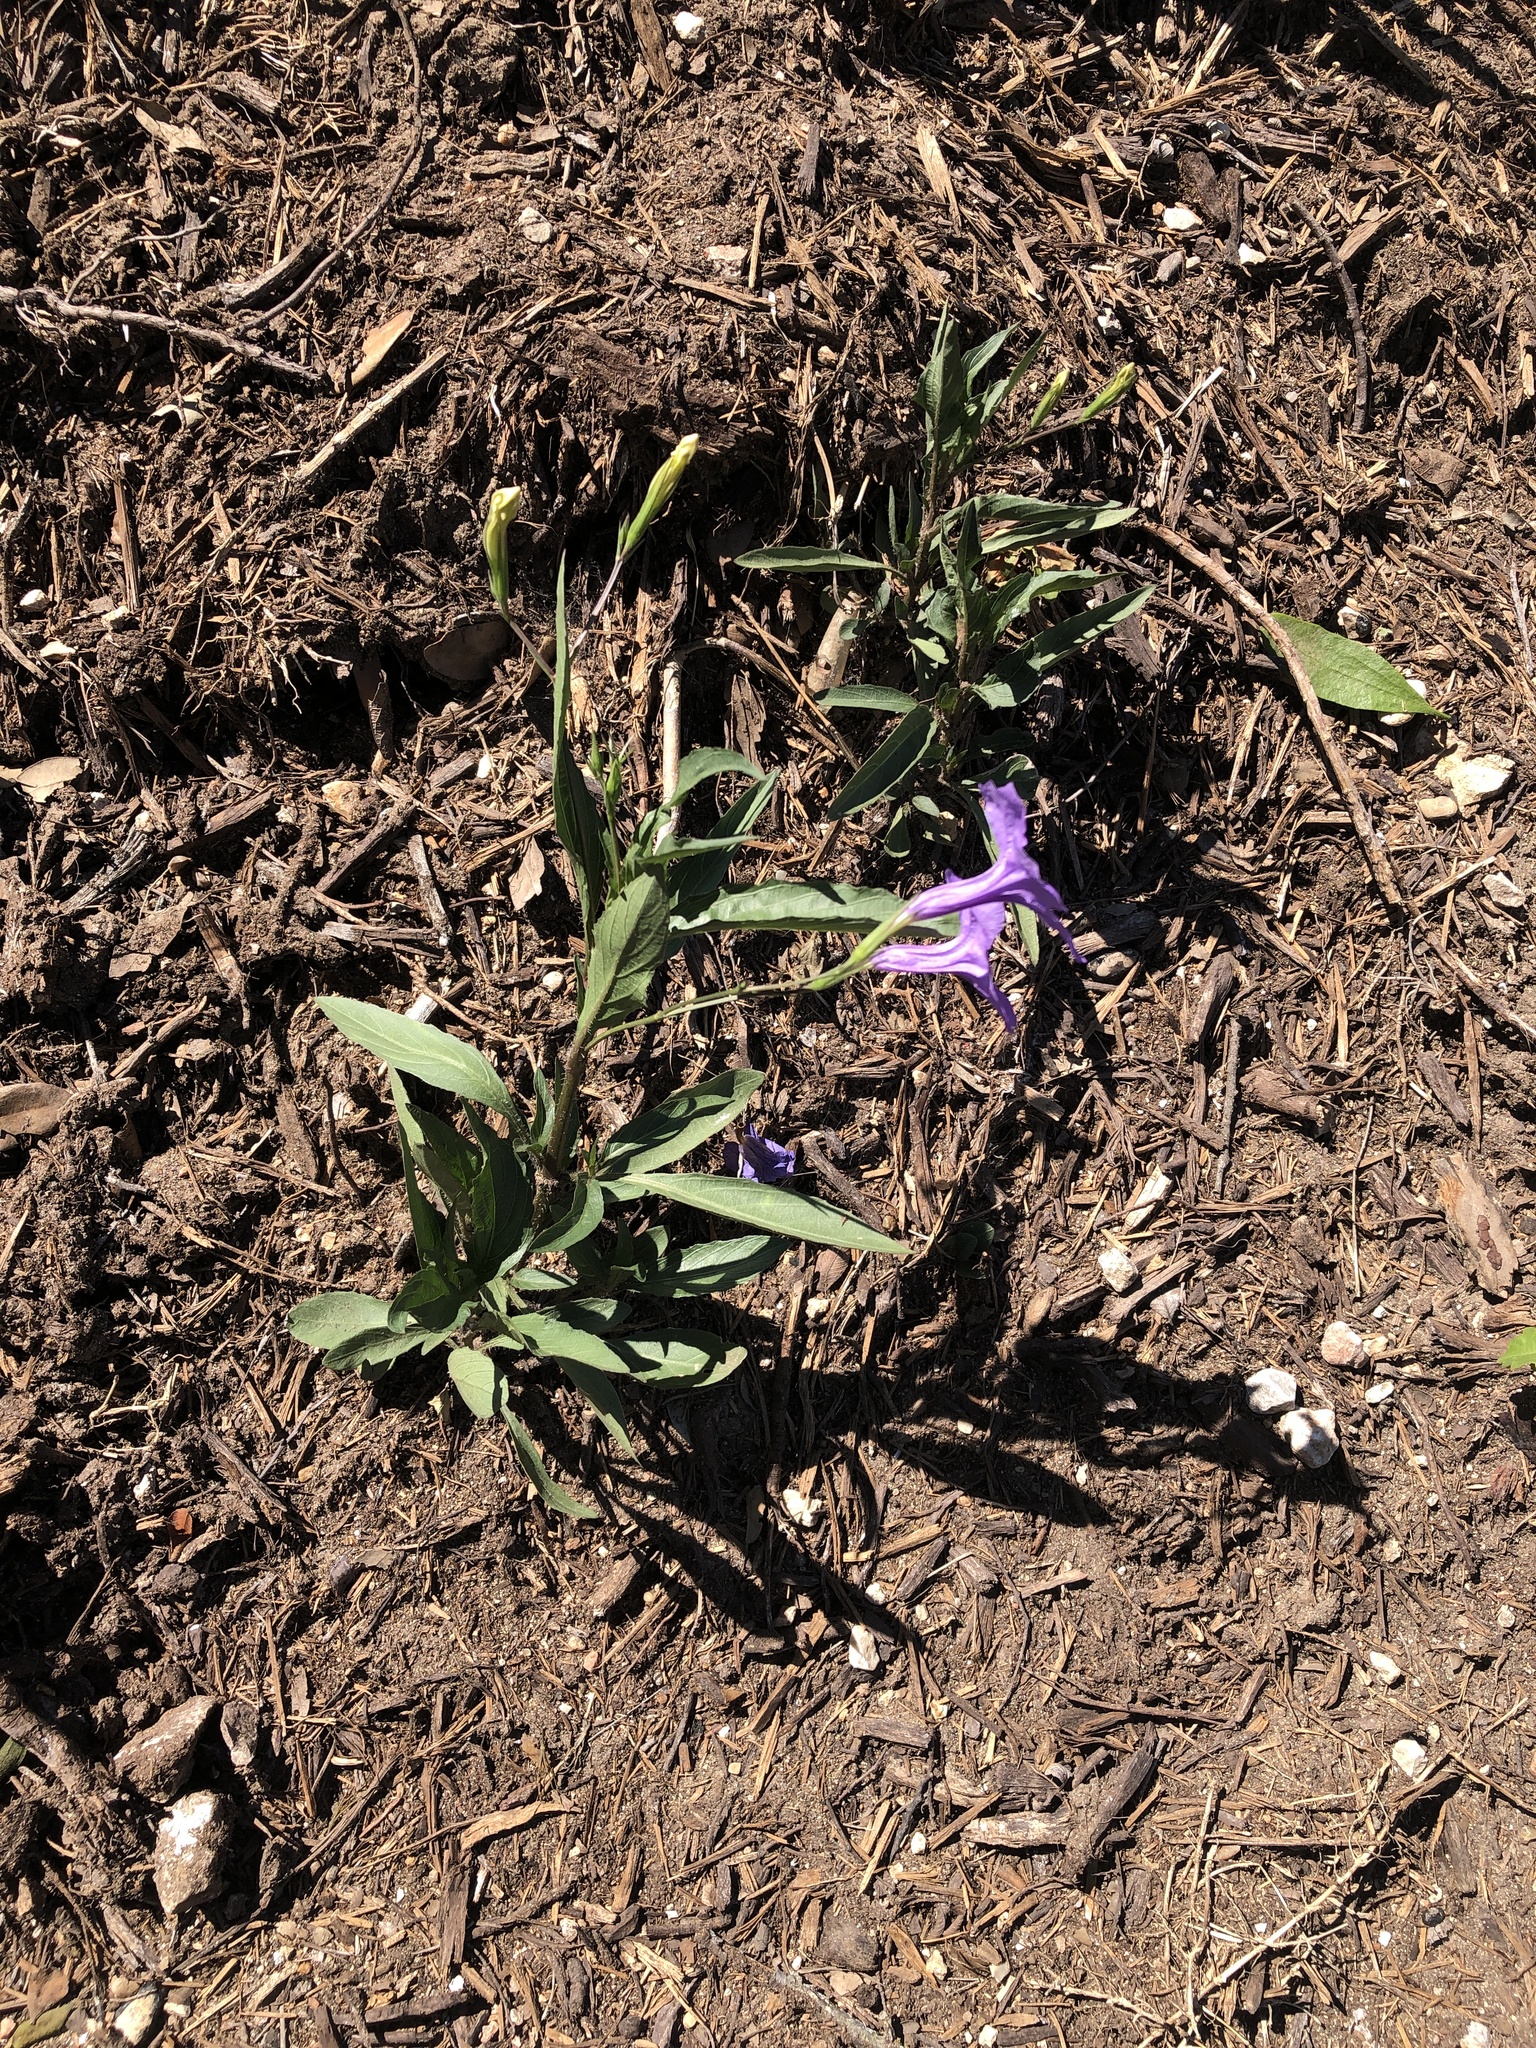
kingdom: Plantae
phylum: Tracheophyta
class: Magnoliopsida
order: Lamiales
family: Acanthaceae
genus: Ruellia
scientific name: Ruellia simplex
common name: Softseed wild petunia
